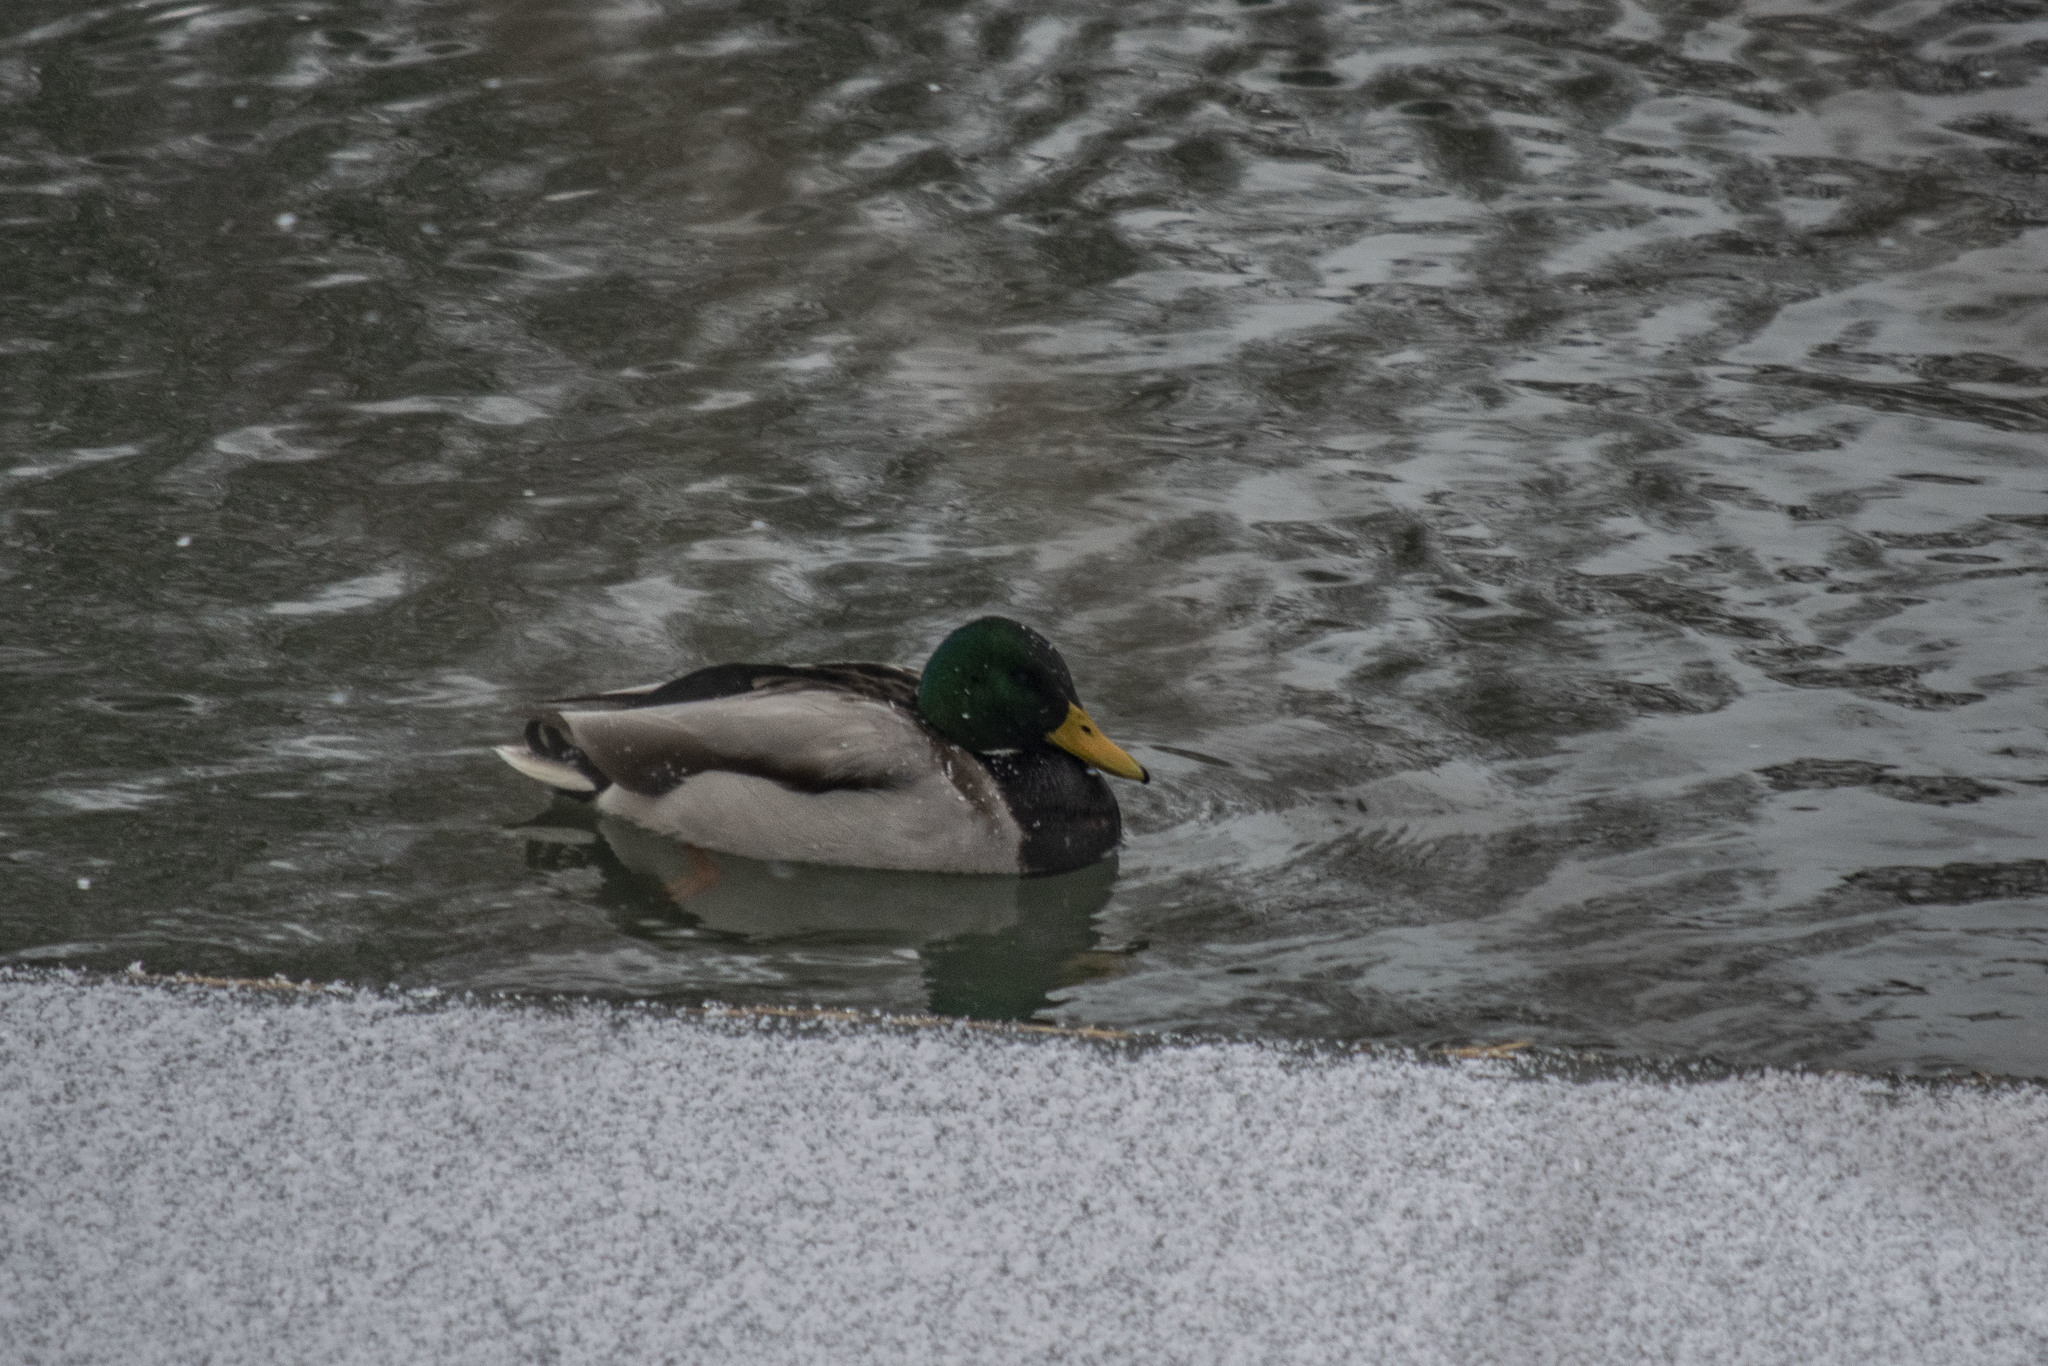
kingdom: Animalia
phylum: Chordata
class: Aves
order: Anseriformes
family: Anatidae
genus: Anas
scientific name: Anas platyrhynchos
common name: Mallard
